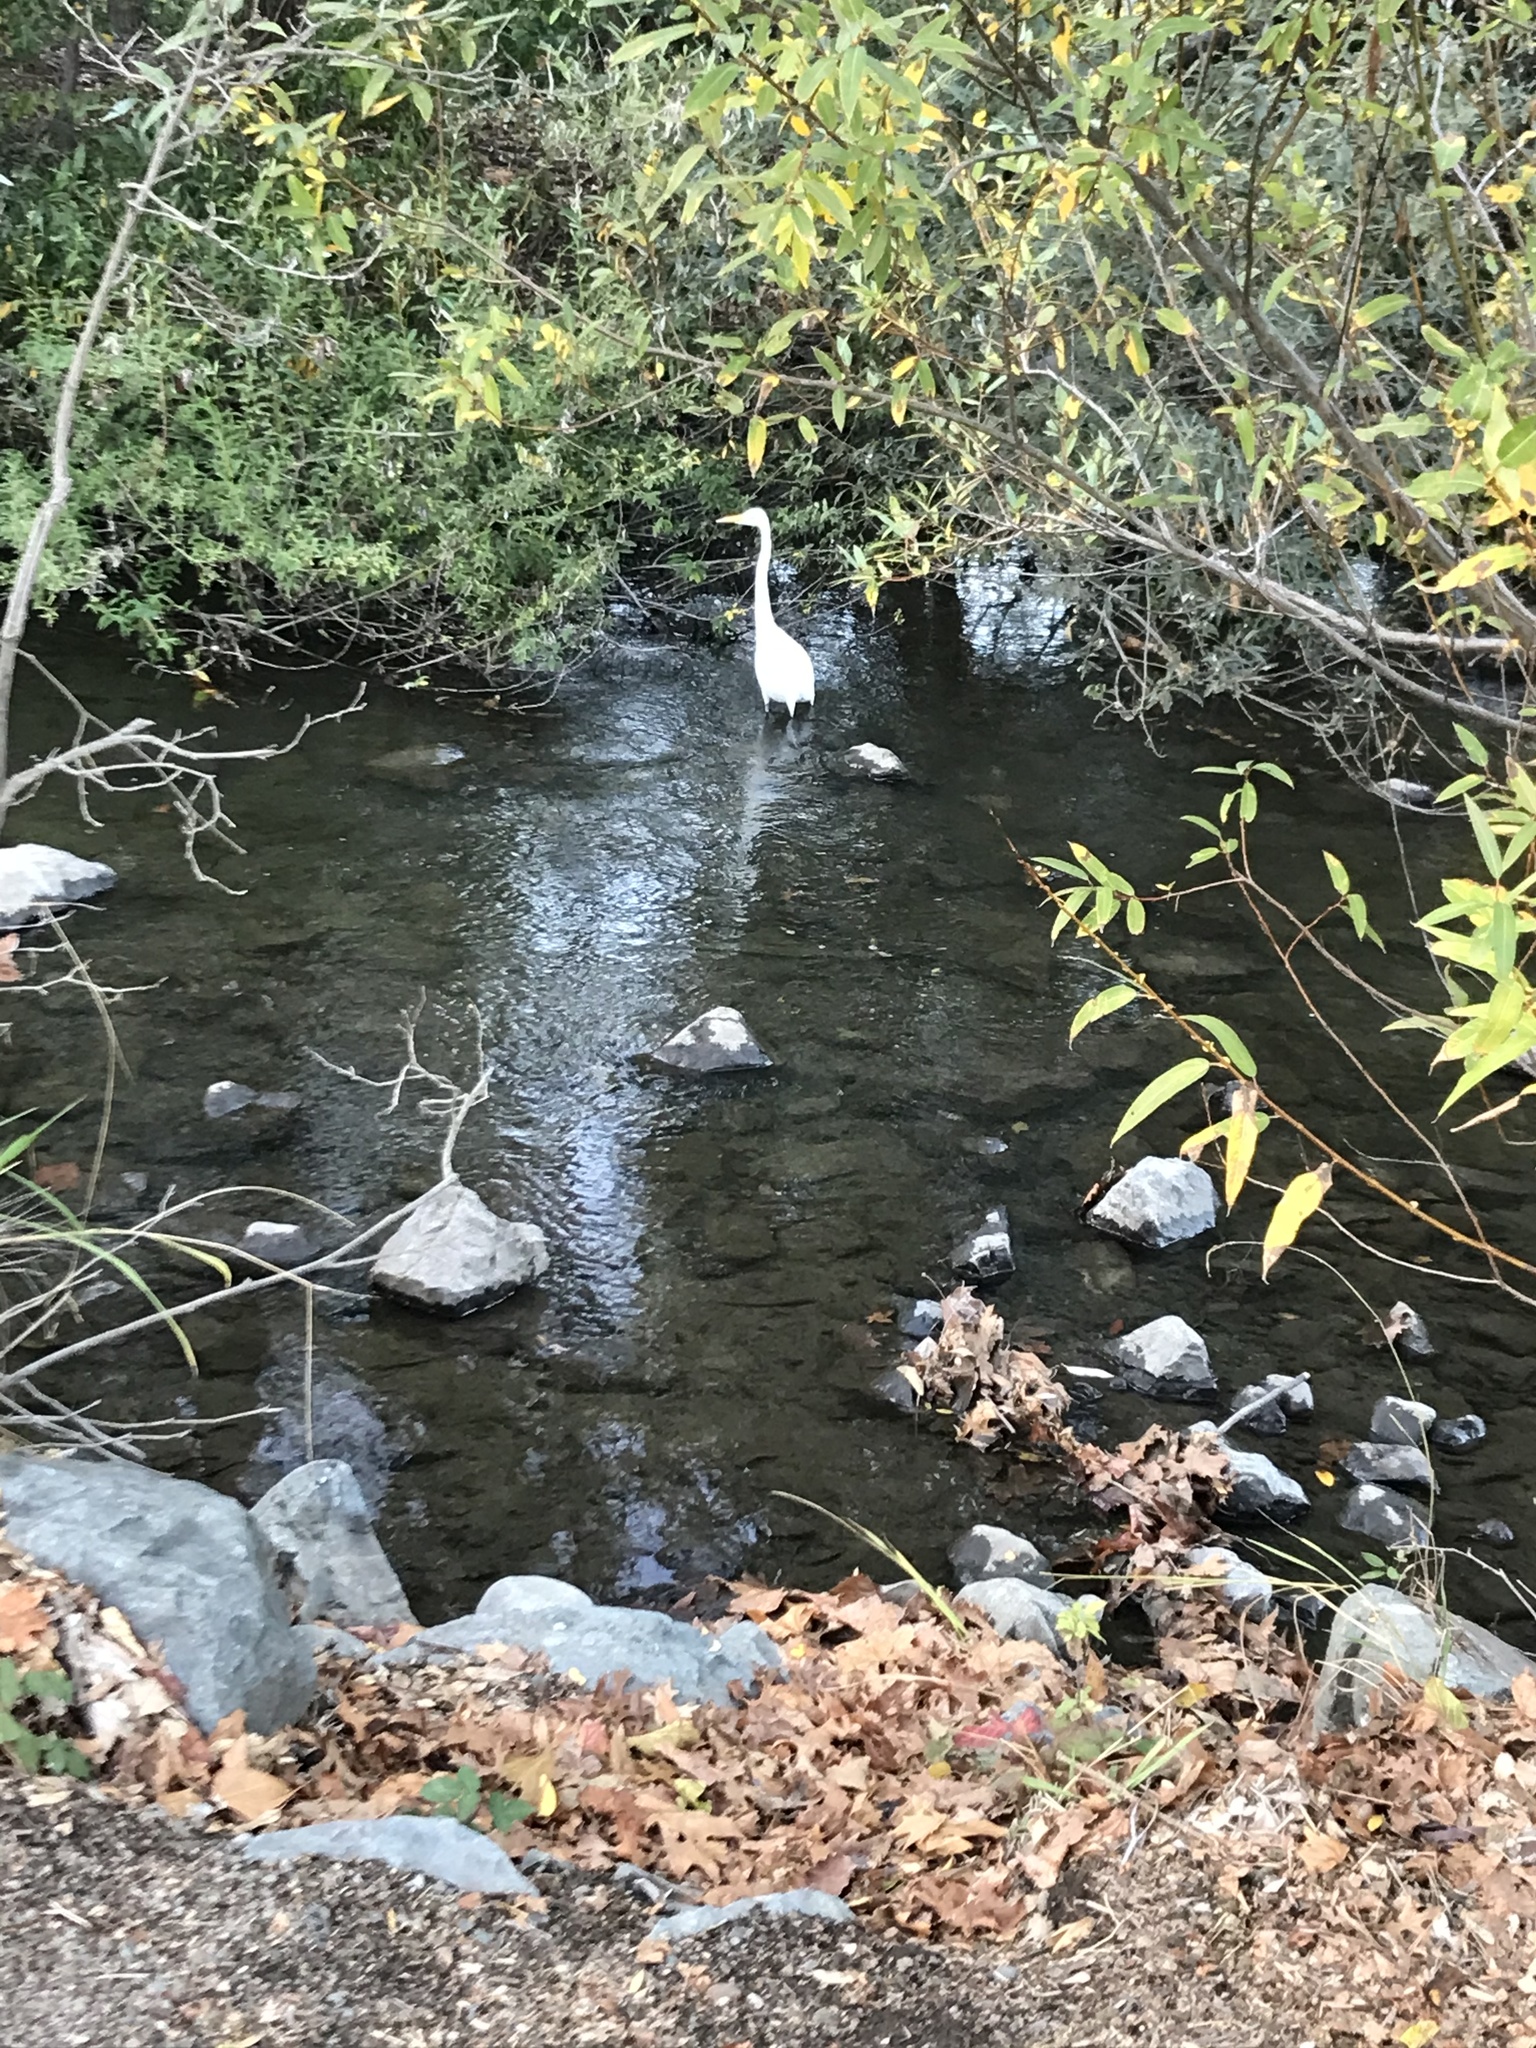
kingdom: Animalia
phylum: Chordata
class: Aves
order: Pelecaniformes
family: Ardeidae
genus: Ardea
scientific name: Ardea alba
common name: Great egret
